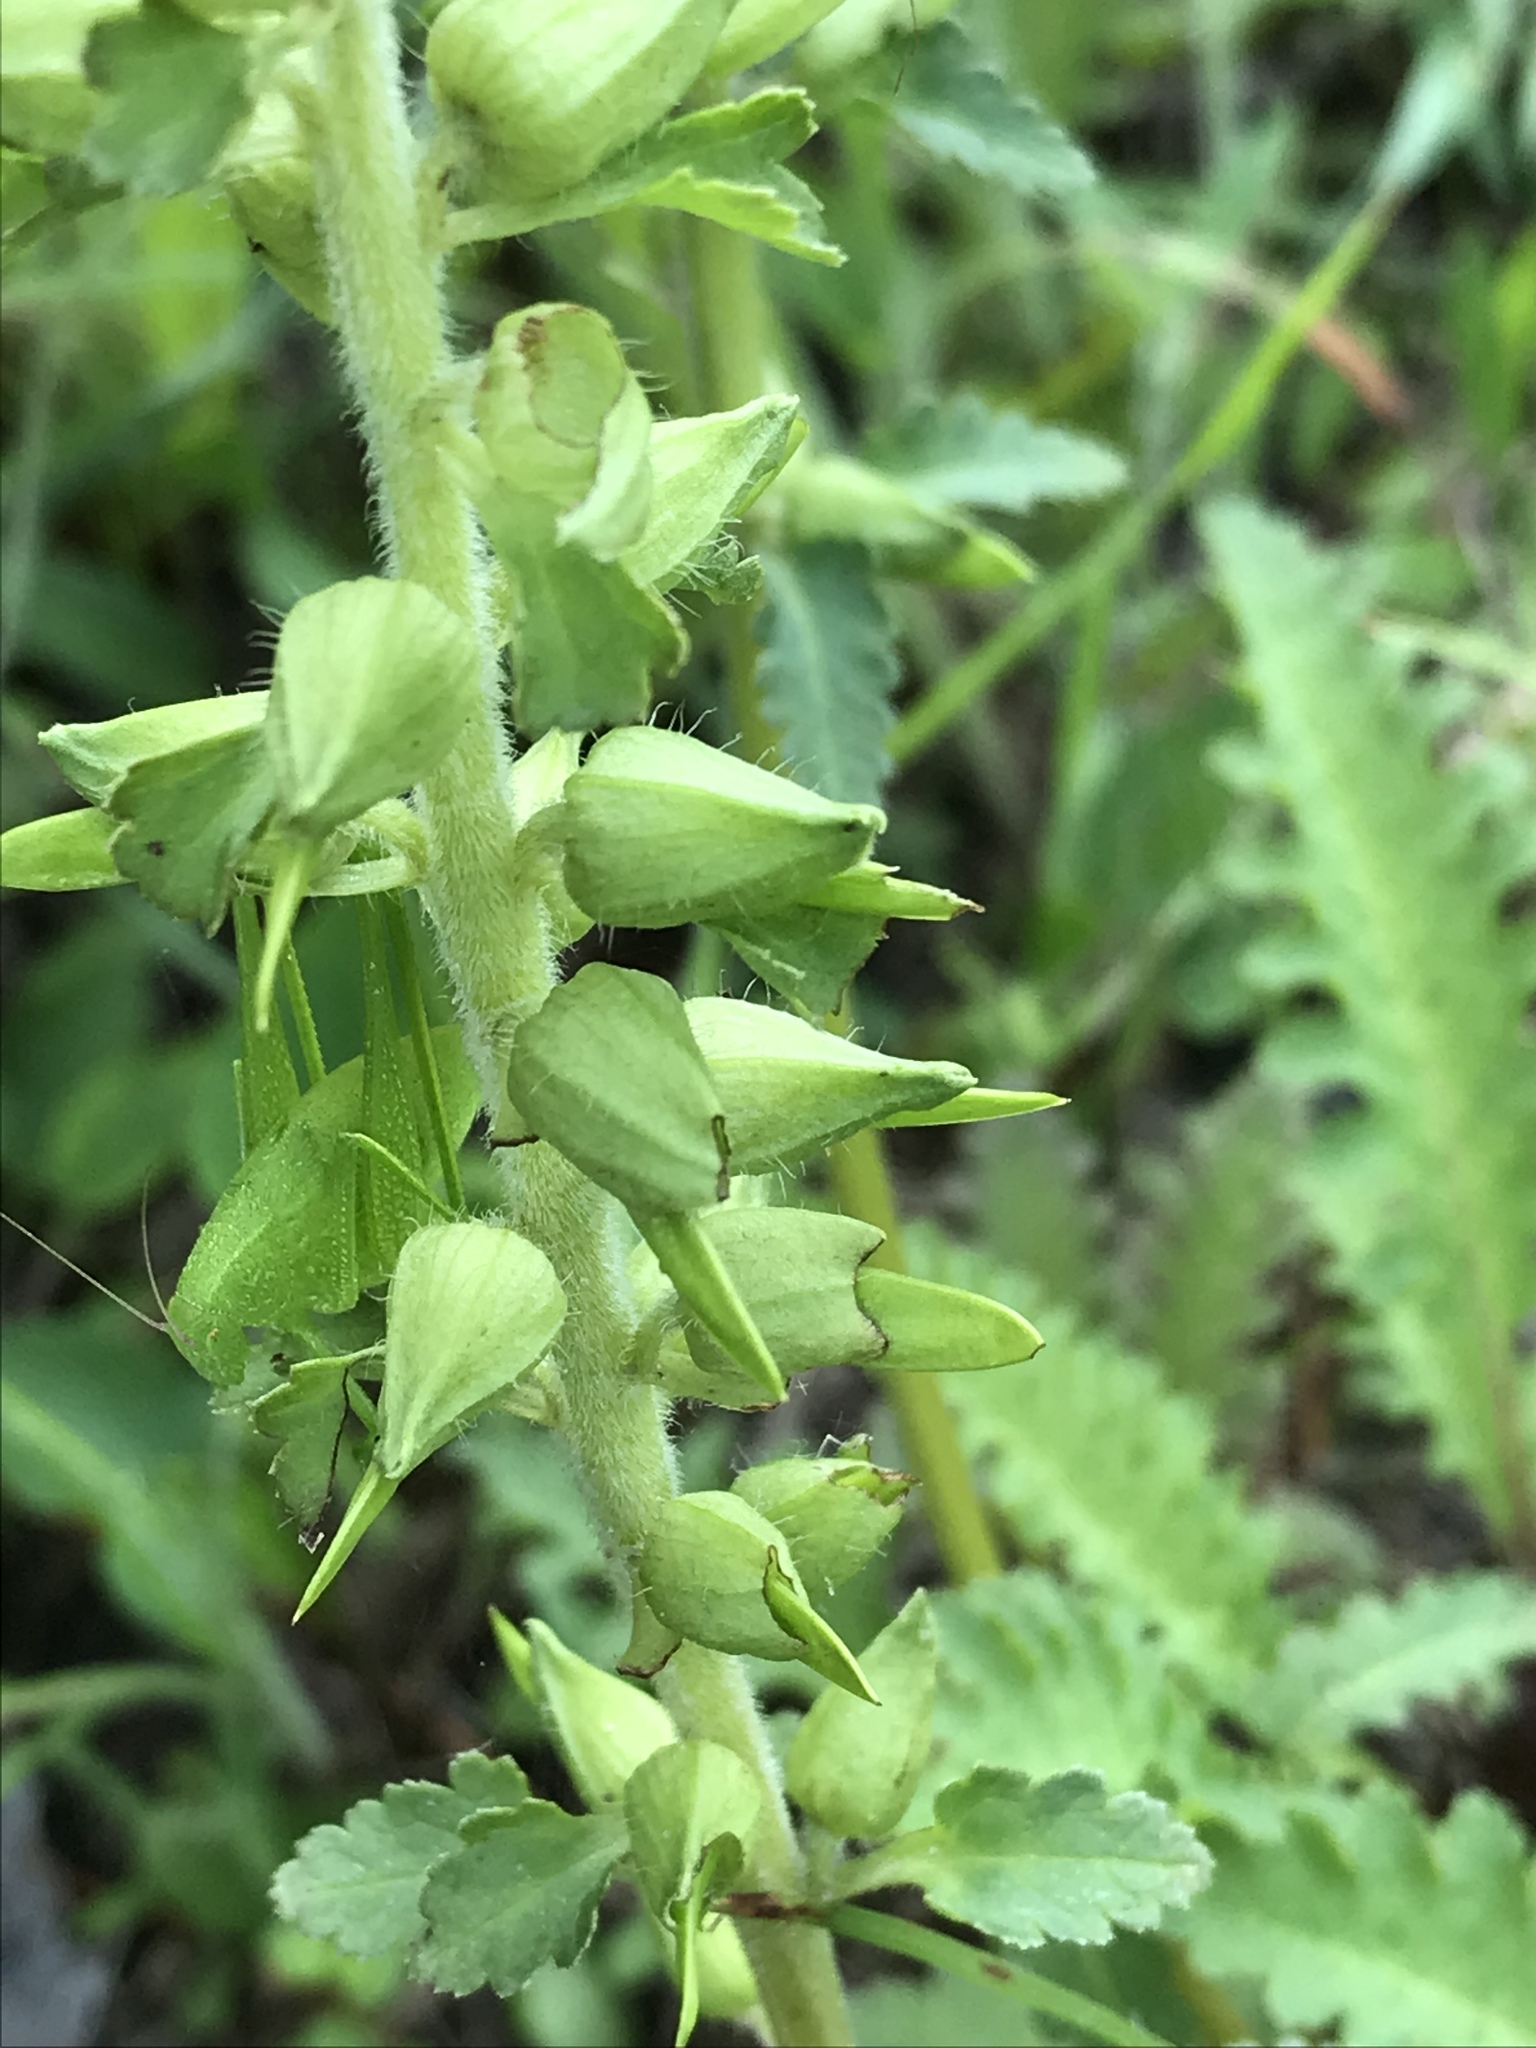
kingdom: Plantae
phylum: Tracheophyta
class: Magnoliopsida
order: Lamiales
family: Orobanchaceae
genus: Pedicularis
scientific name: Pedicularis canadensis
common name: Early lousewort
